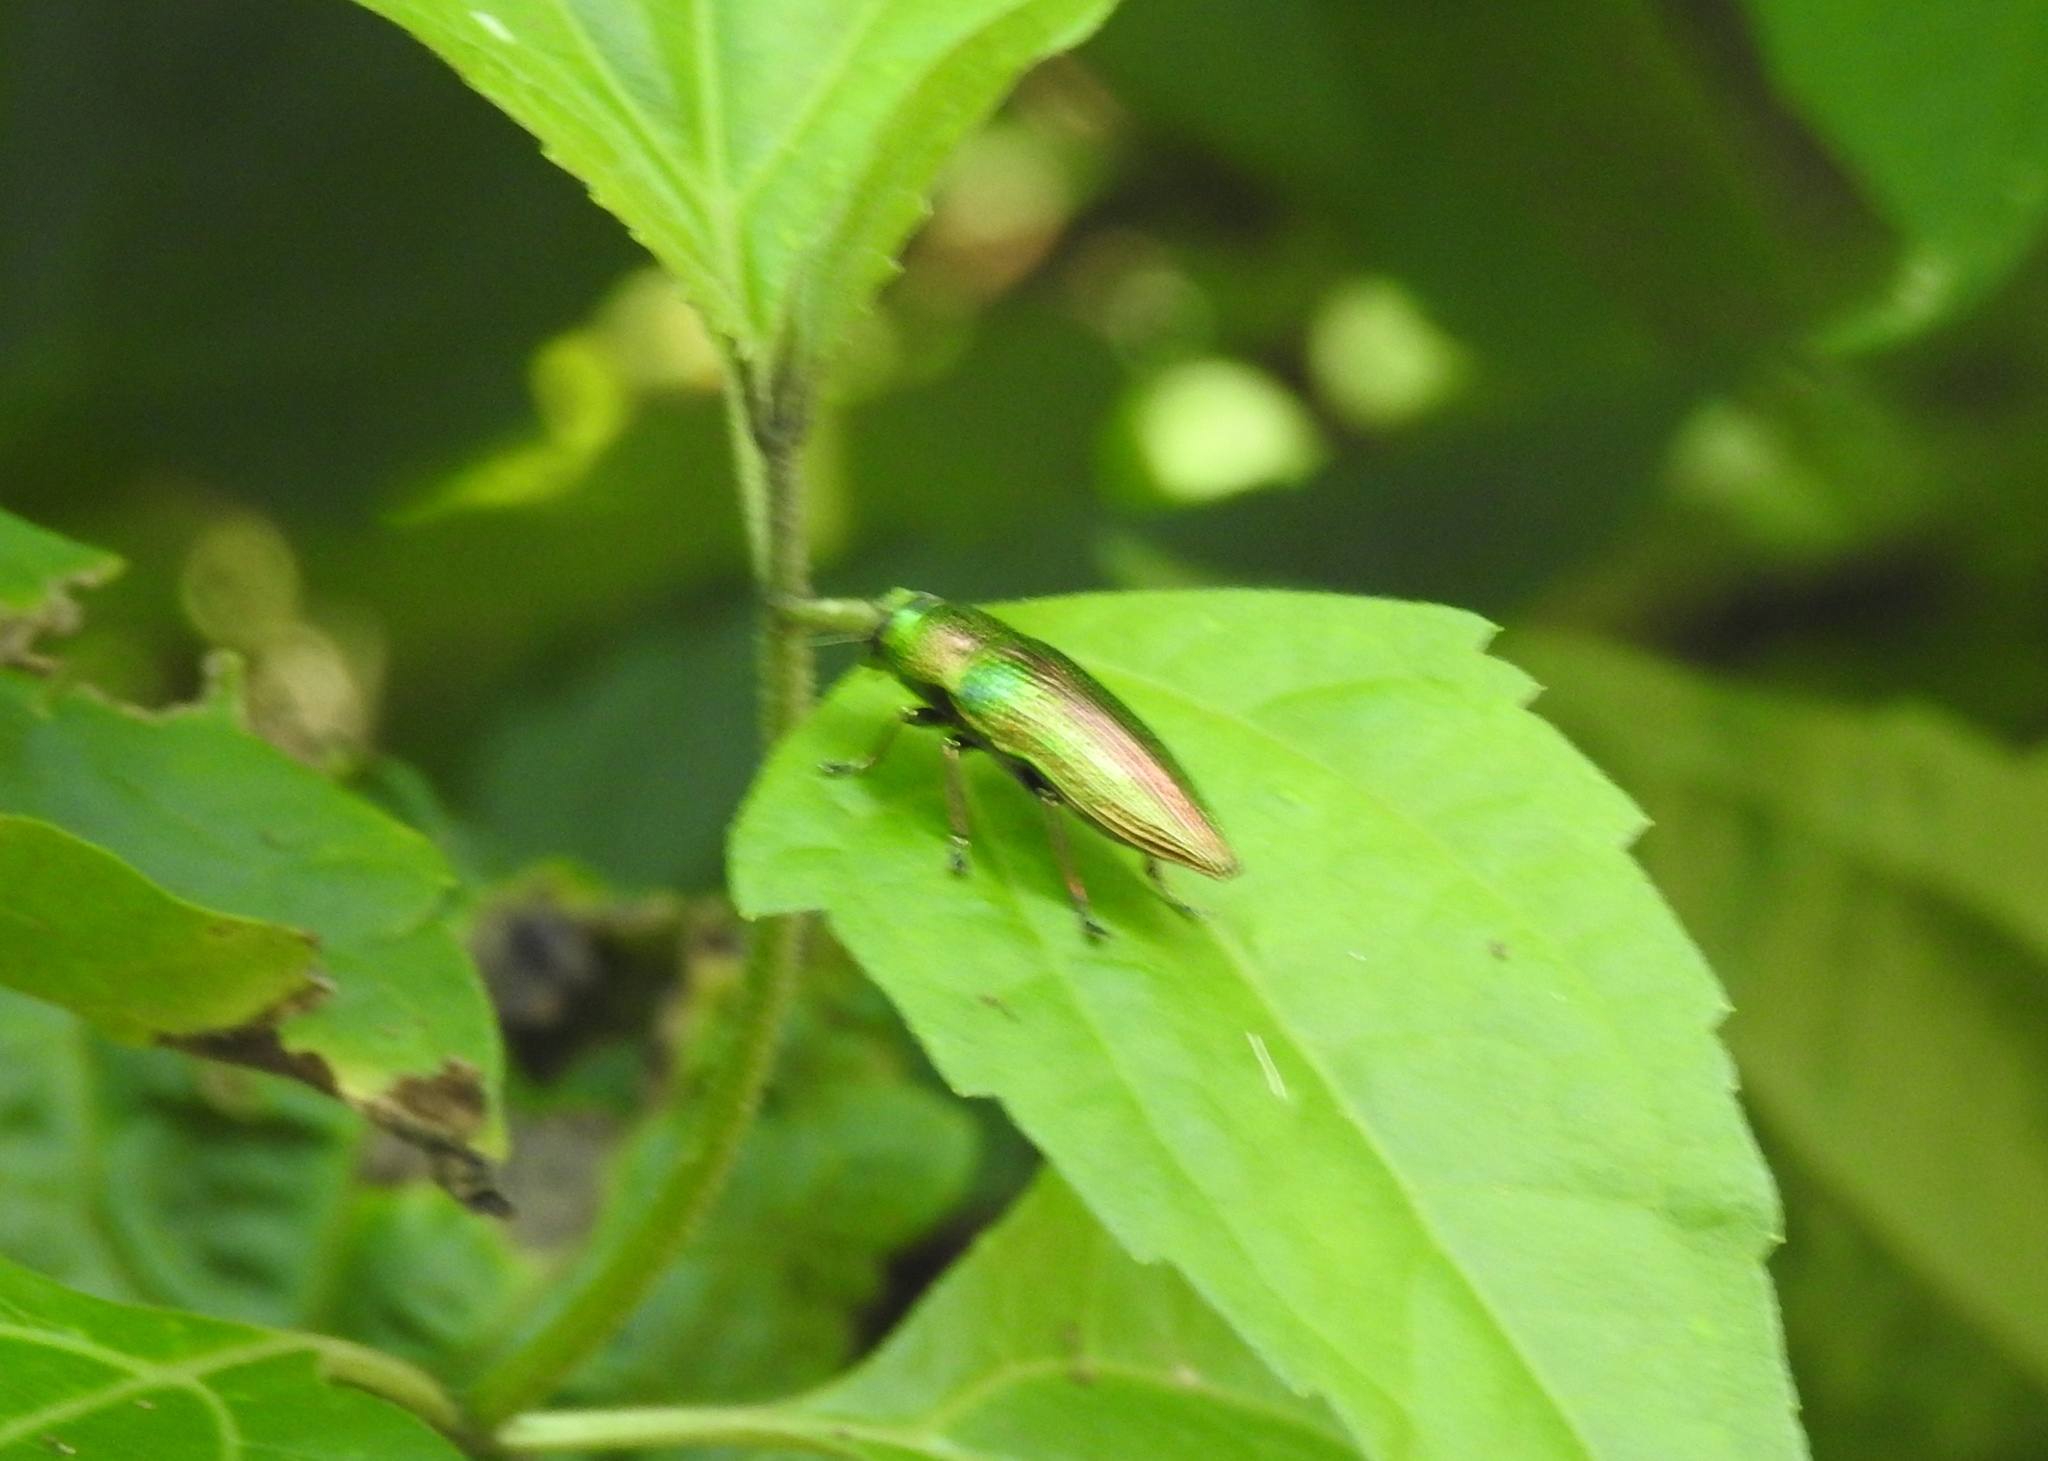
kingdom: Animalia
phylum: Arthropoda
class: Insecta
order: Coleoptera
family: Buprestidae
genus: Lampetis
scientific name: Lampetis fastuosa
